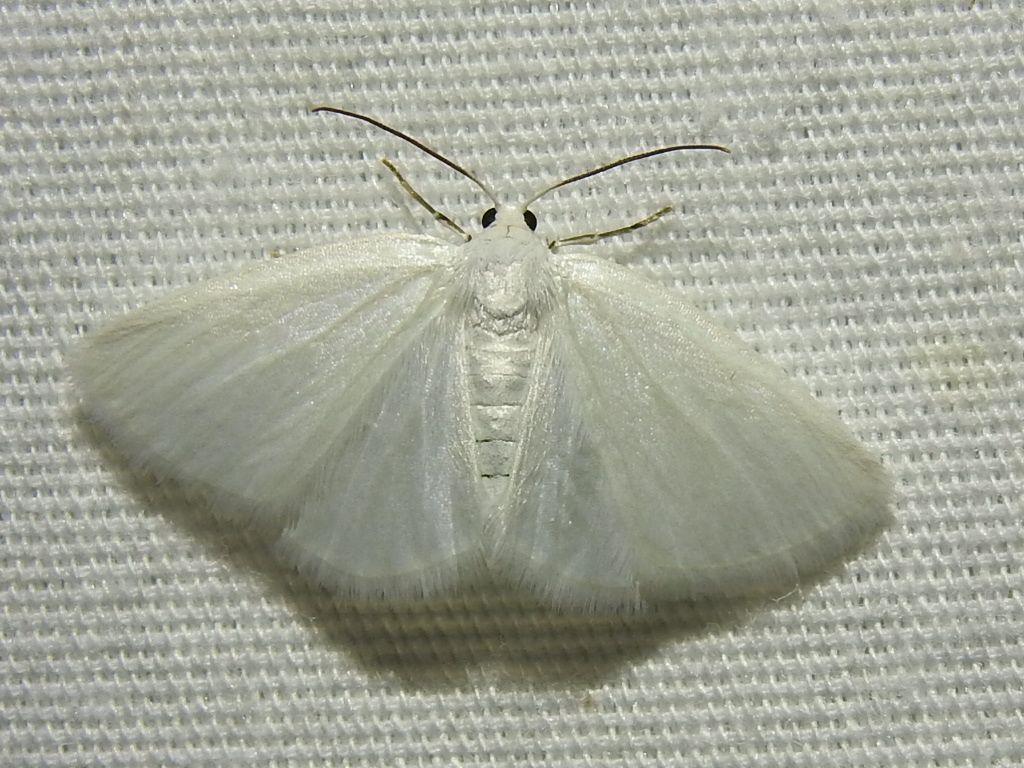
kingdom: Animalia
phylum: Arthropoda
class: Insecta
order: Lepidoptera
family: Geometridae
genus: Lomographa
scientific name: Lomographa vestaliata
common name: White spring moth
